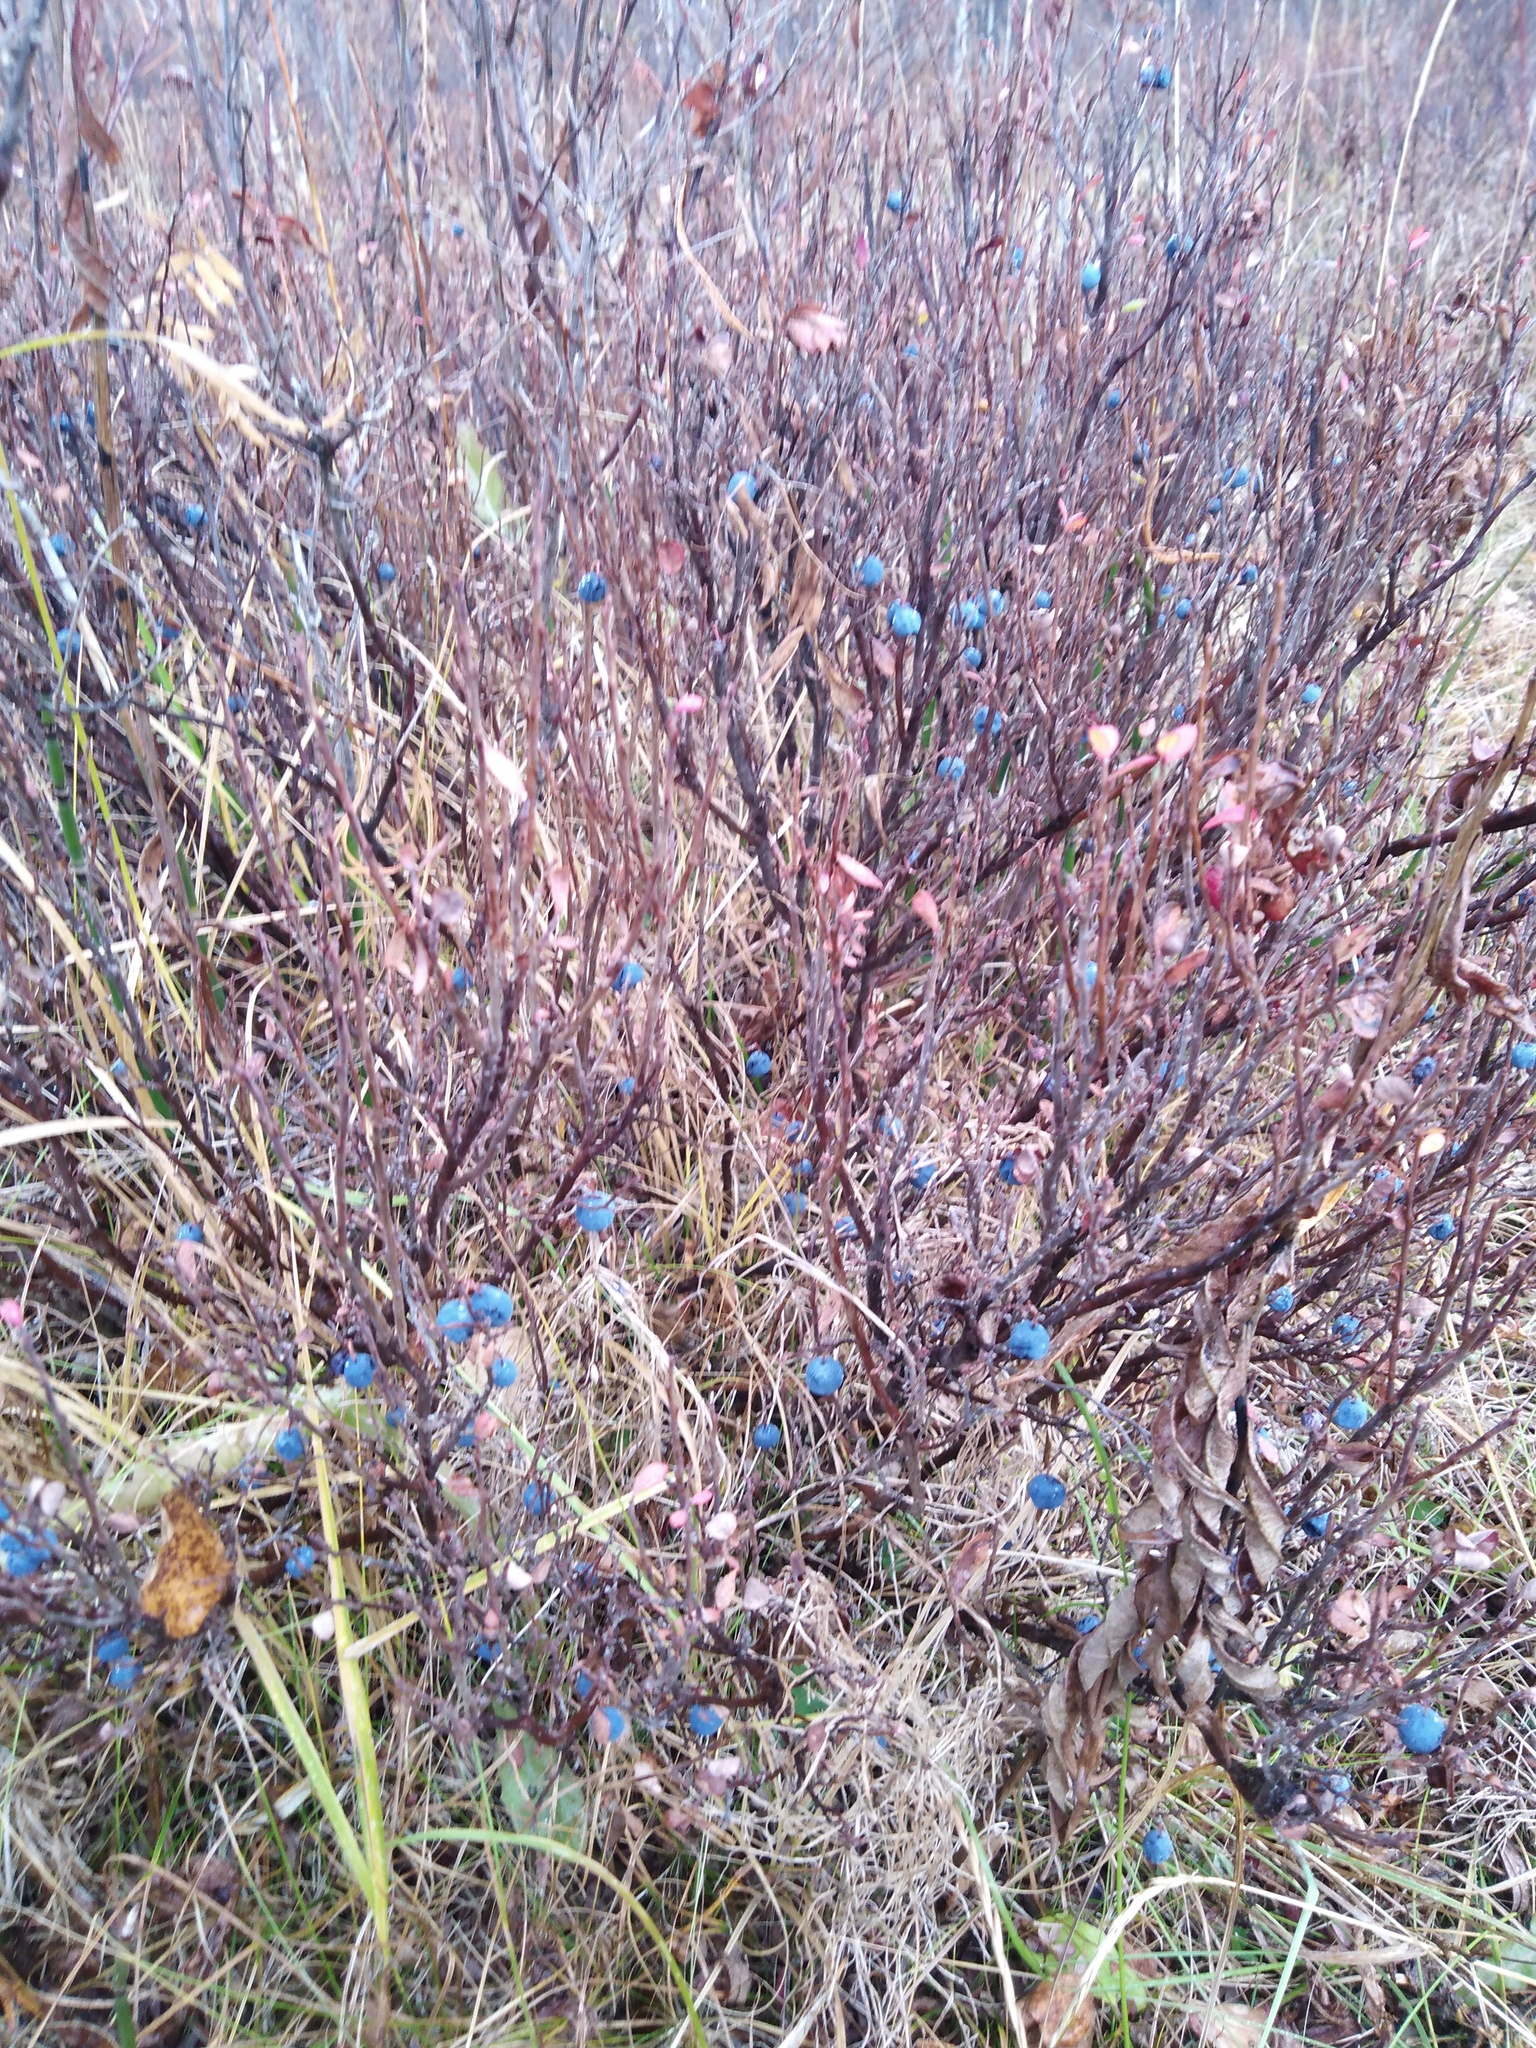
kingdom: Plantae
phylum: Tracheophyta
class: Magnoliopsida
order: Ericales
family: Ericaceae
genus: Vaccinium
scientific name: Vaccinium uliginosum
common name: Bog bilberry
